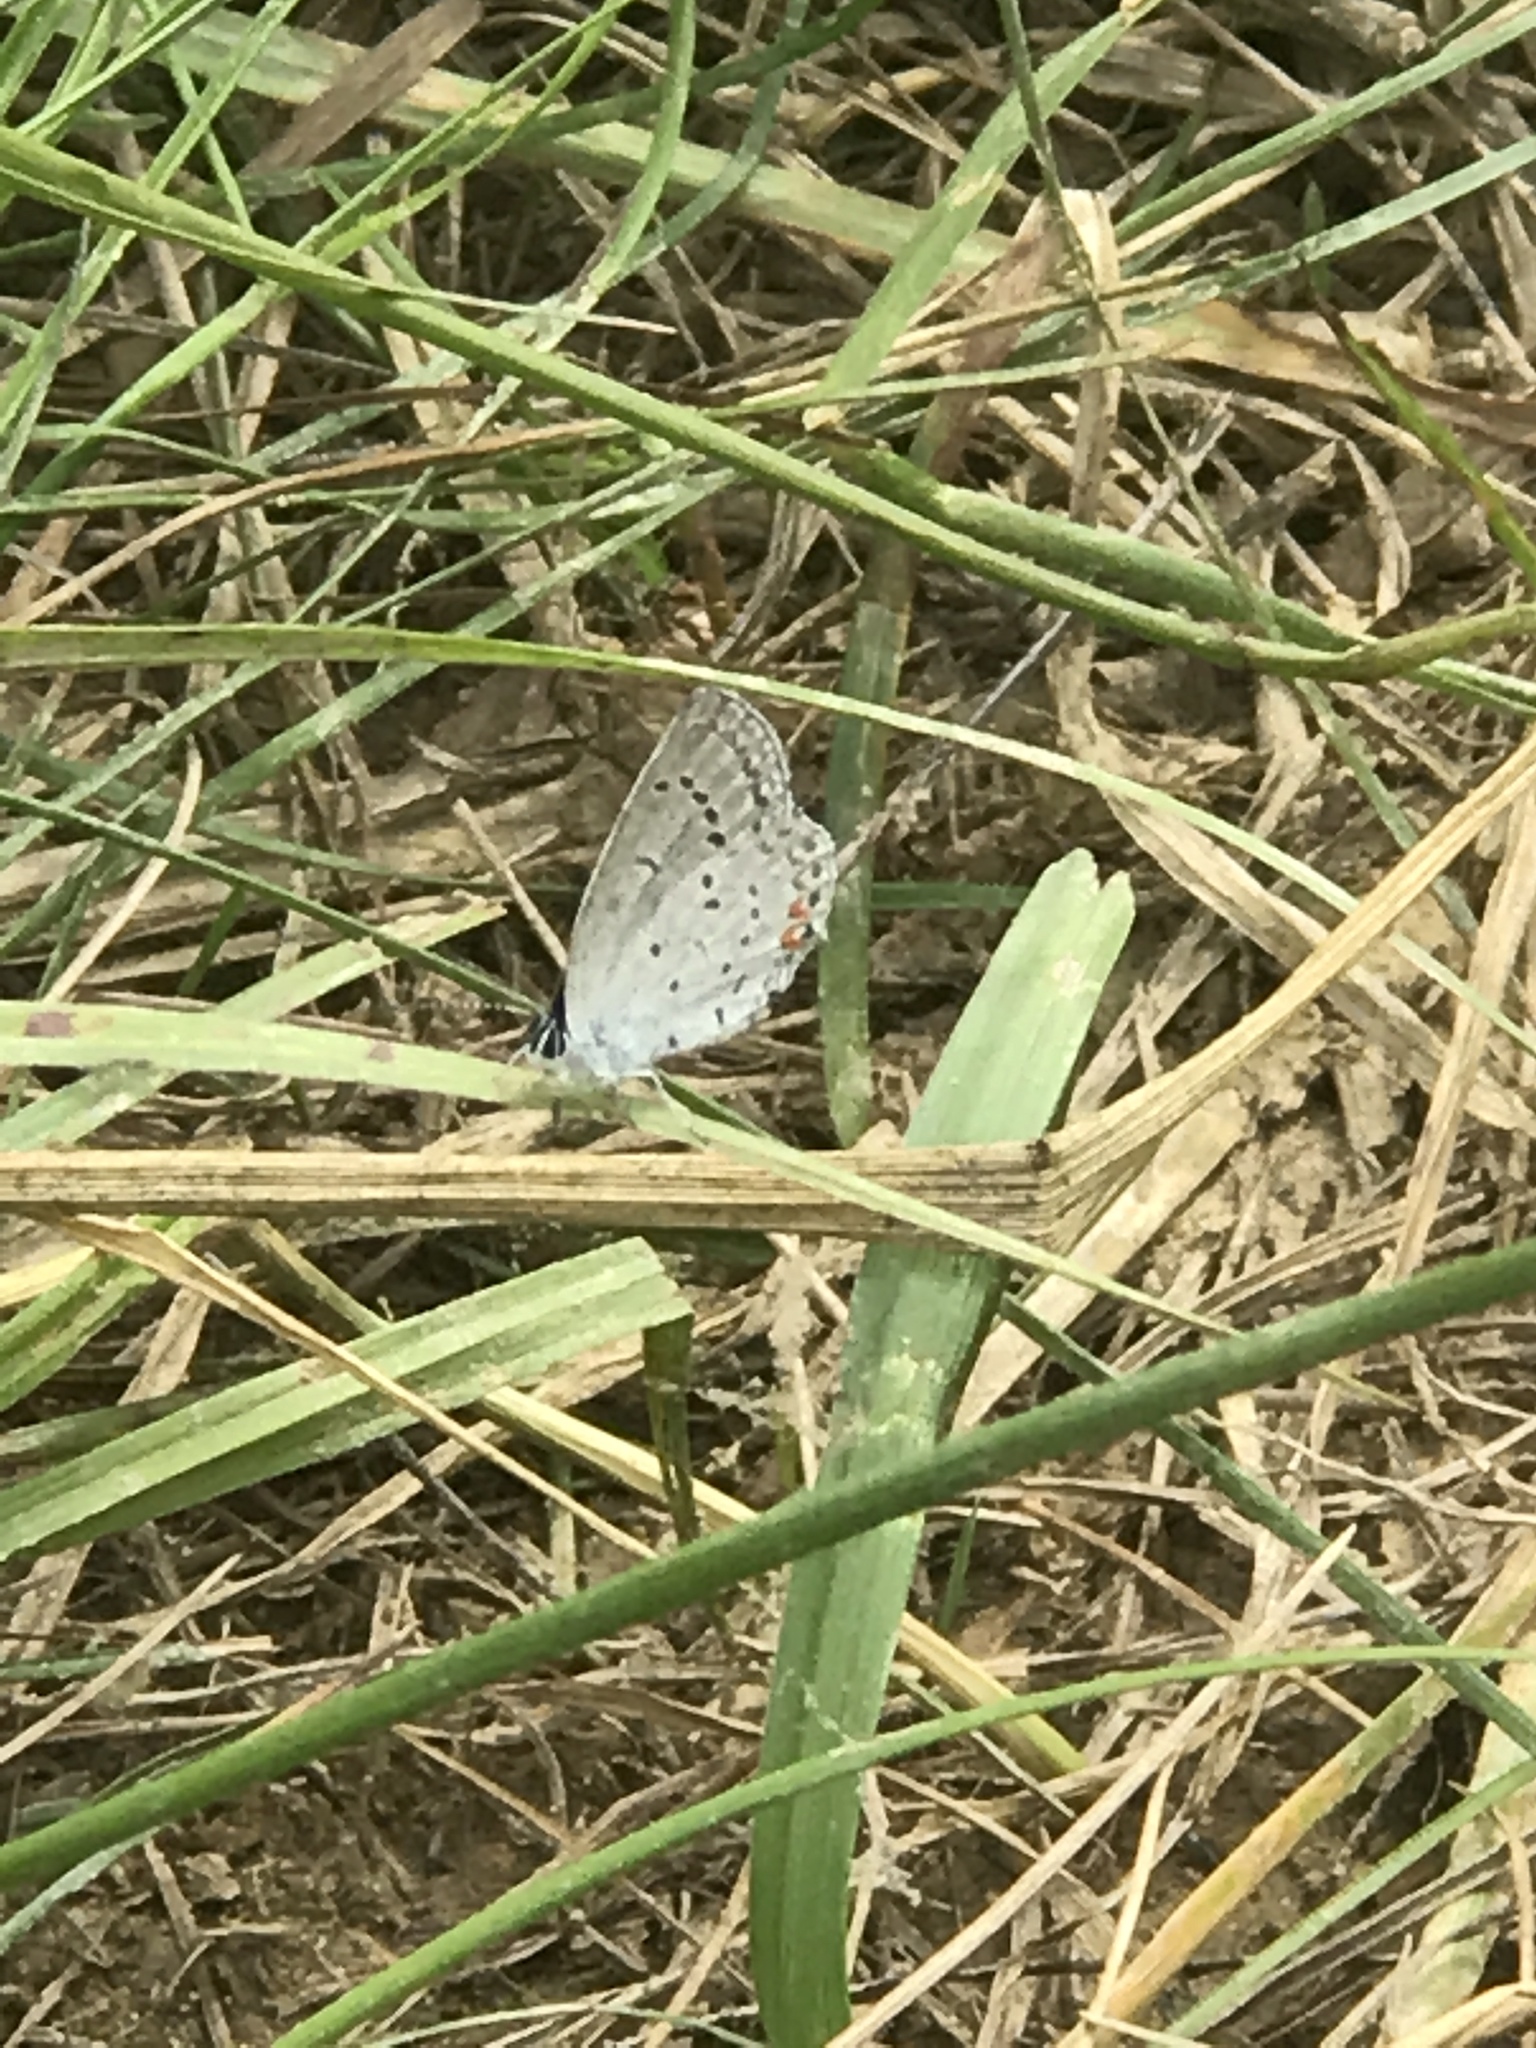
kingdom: Animalia
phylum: Arthropoda
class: Insecta
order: Lepidoptera
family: Lycaenidae
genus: Elkalyce
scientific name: Elkalyce comyntas
